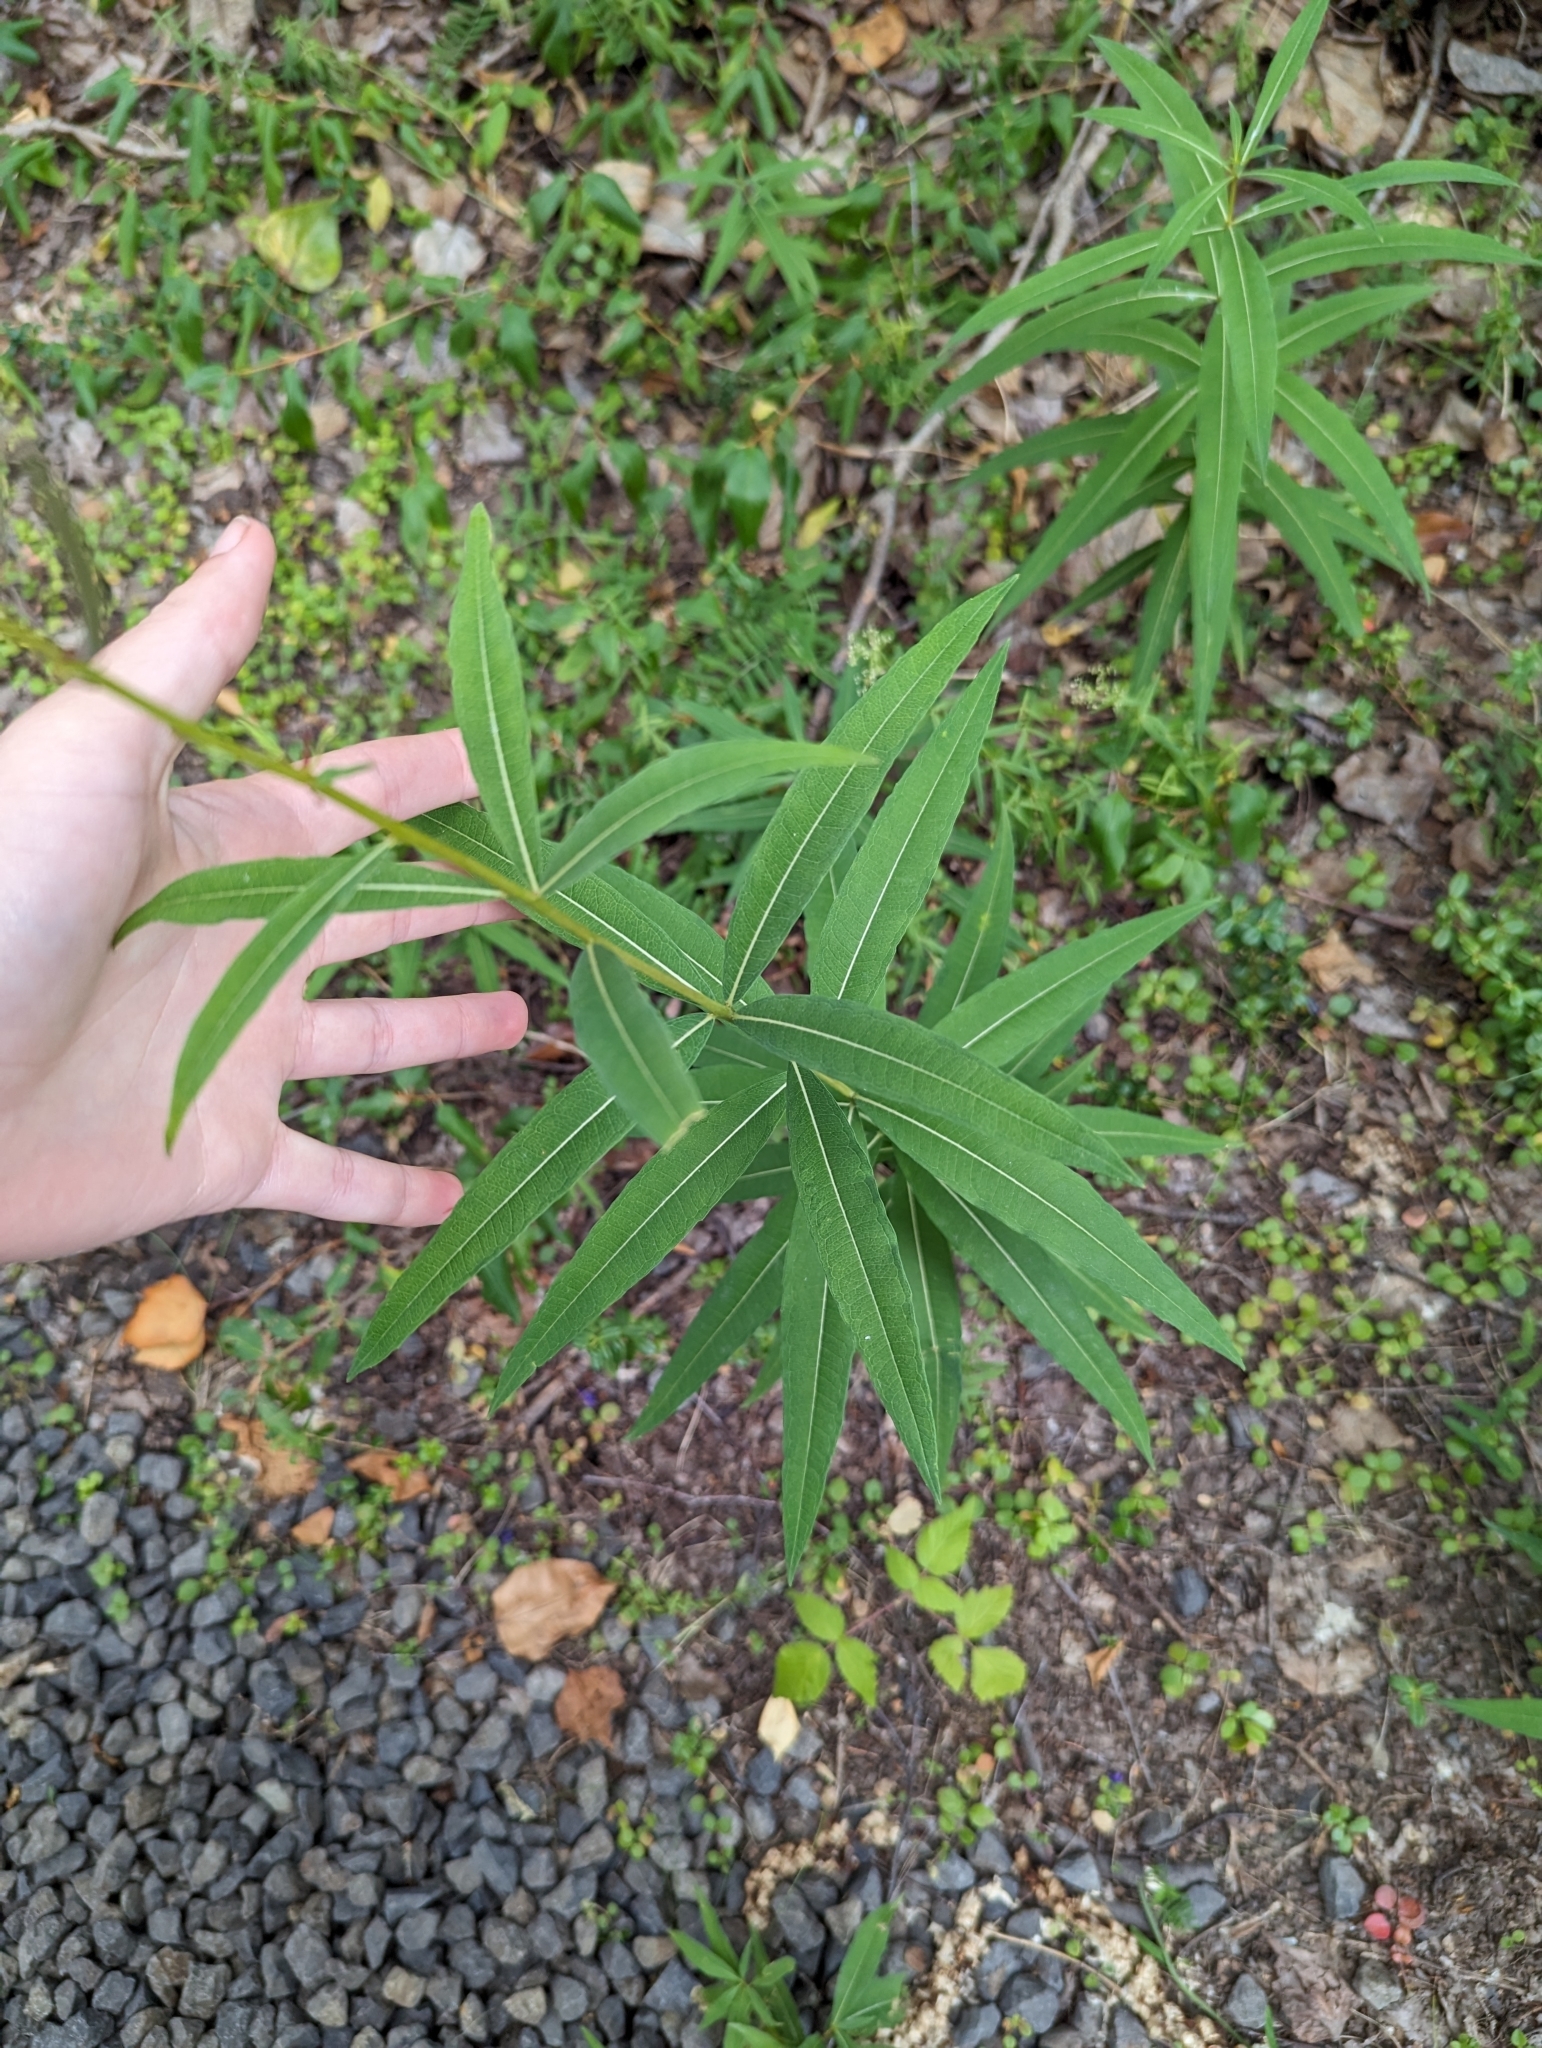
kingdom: Plantae
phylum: Tracheophyta
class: Magnoliopsida
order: Myrtales
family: Onagraceae
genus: Chamaenerion
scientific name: Chamaenerion angustifolium
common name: Fireweed
